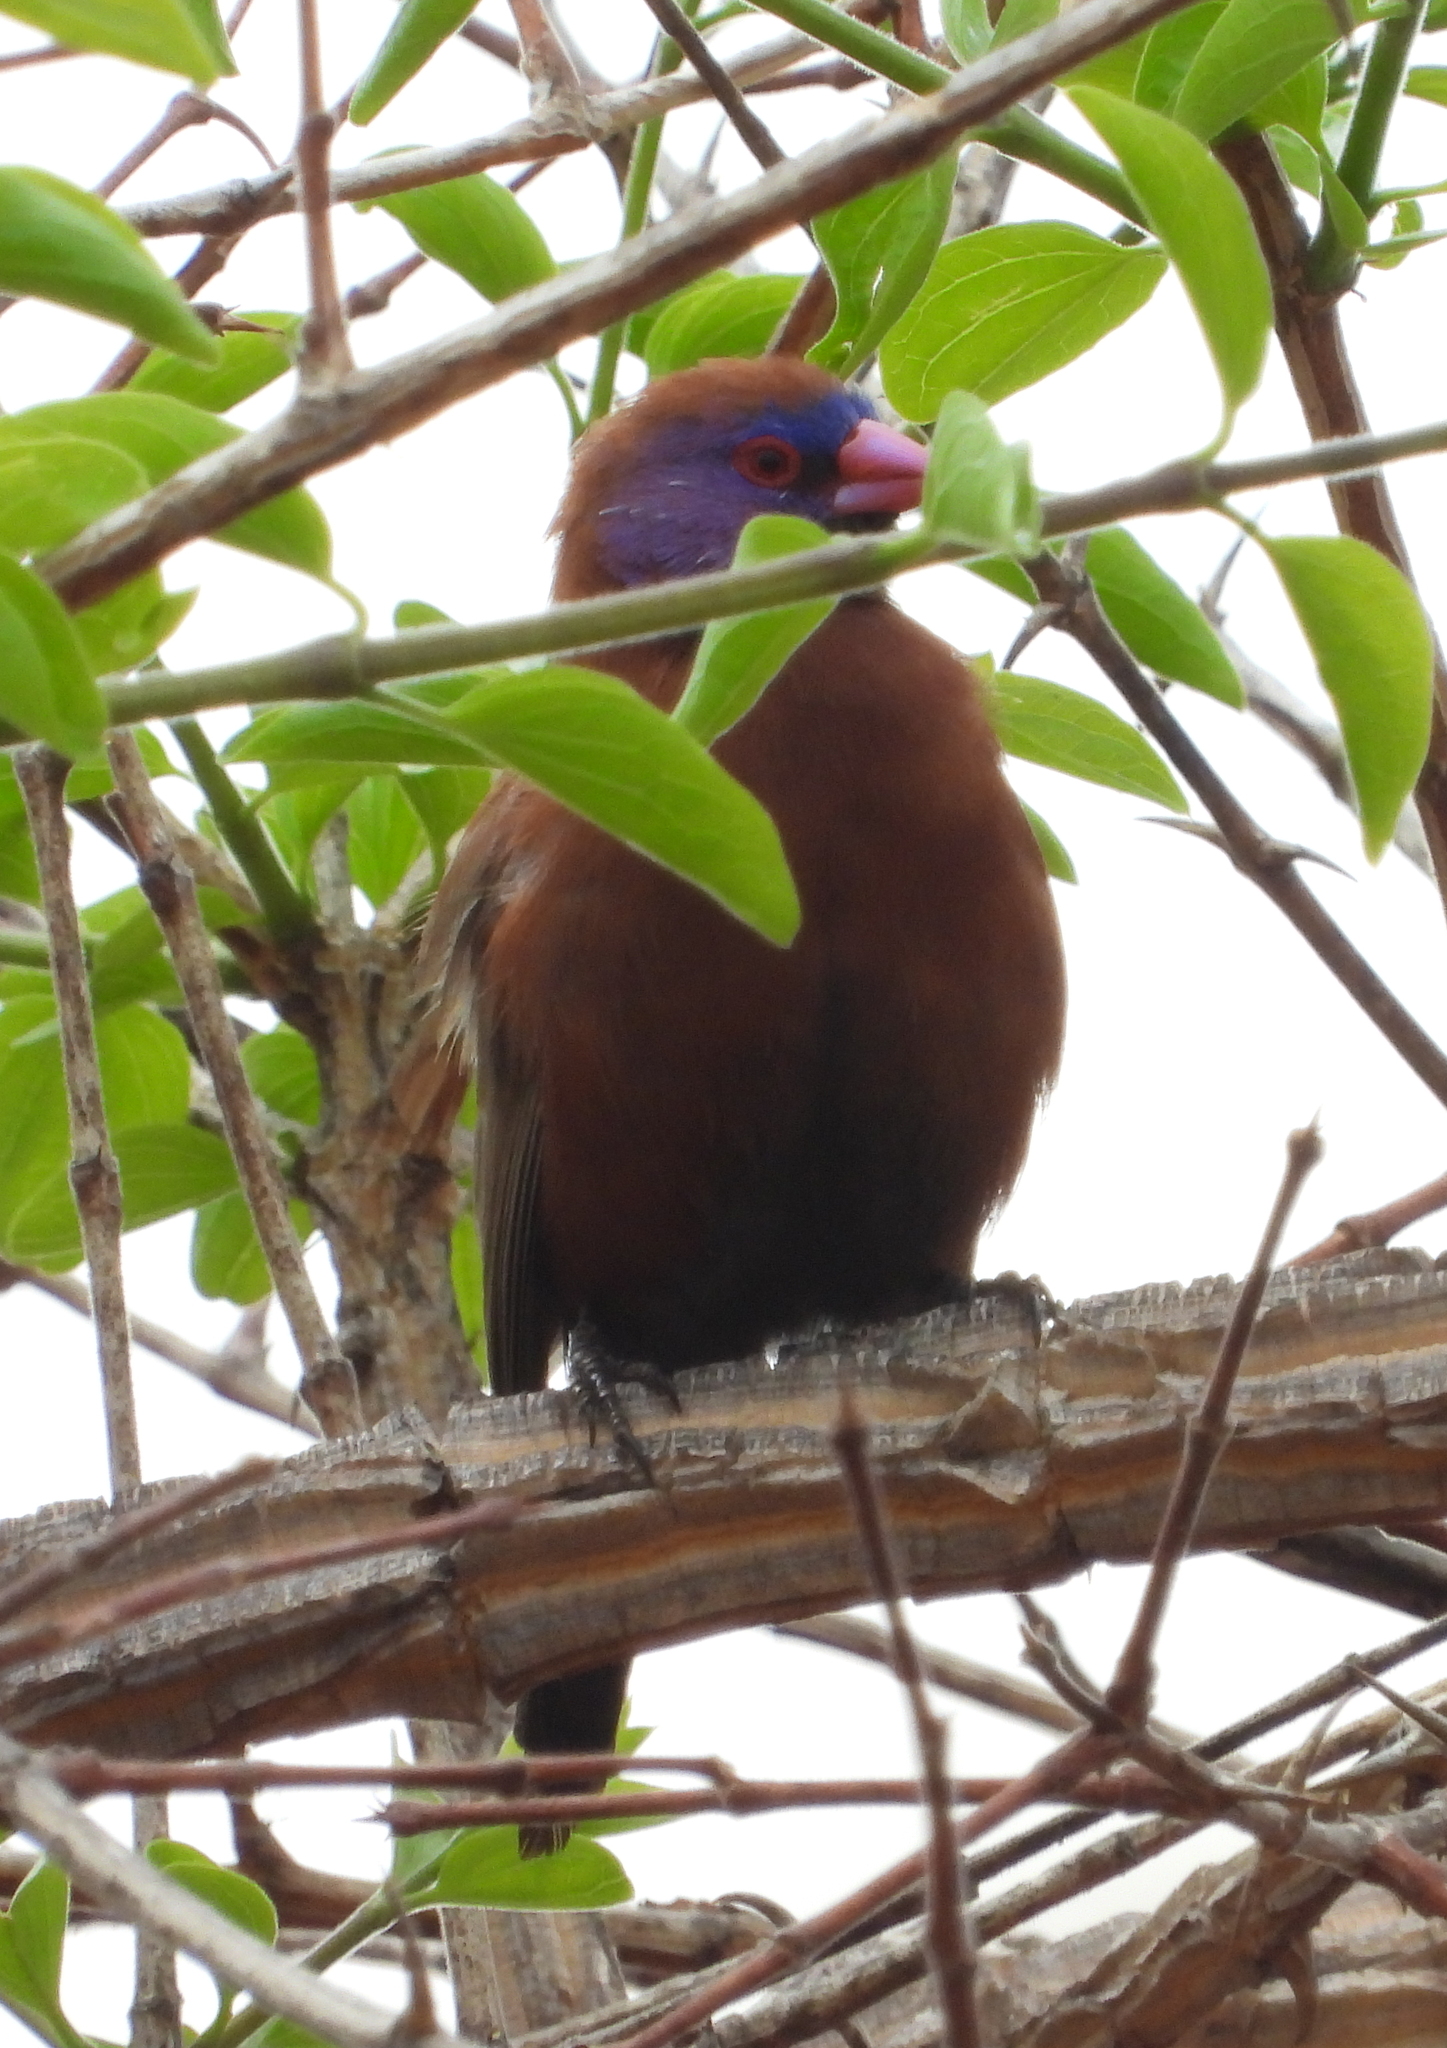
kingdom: Animalia
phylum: Chordata
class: Aves
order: Passeriformes
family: Estrildidae
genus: Uraeginthus
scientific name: Uraeginthus granatinus
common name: Violet-eared waxbill
